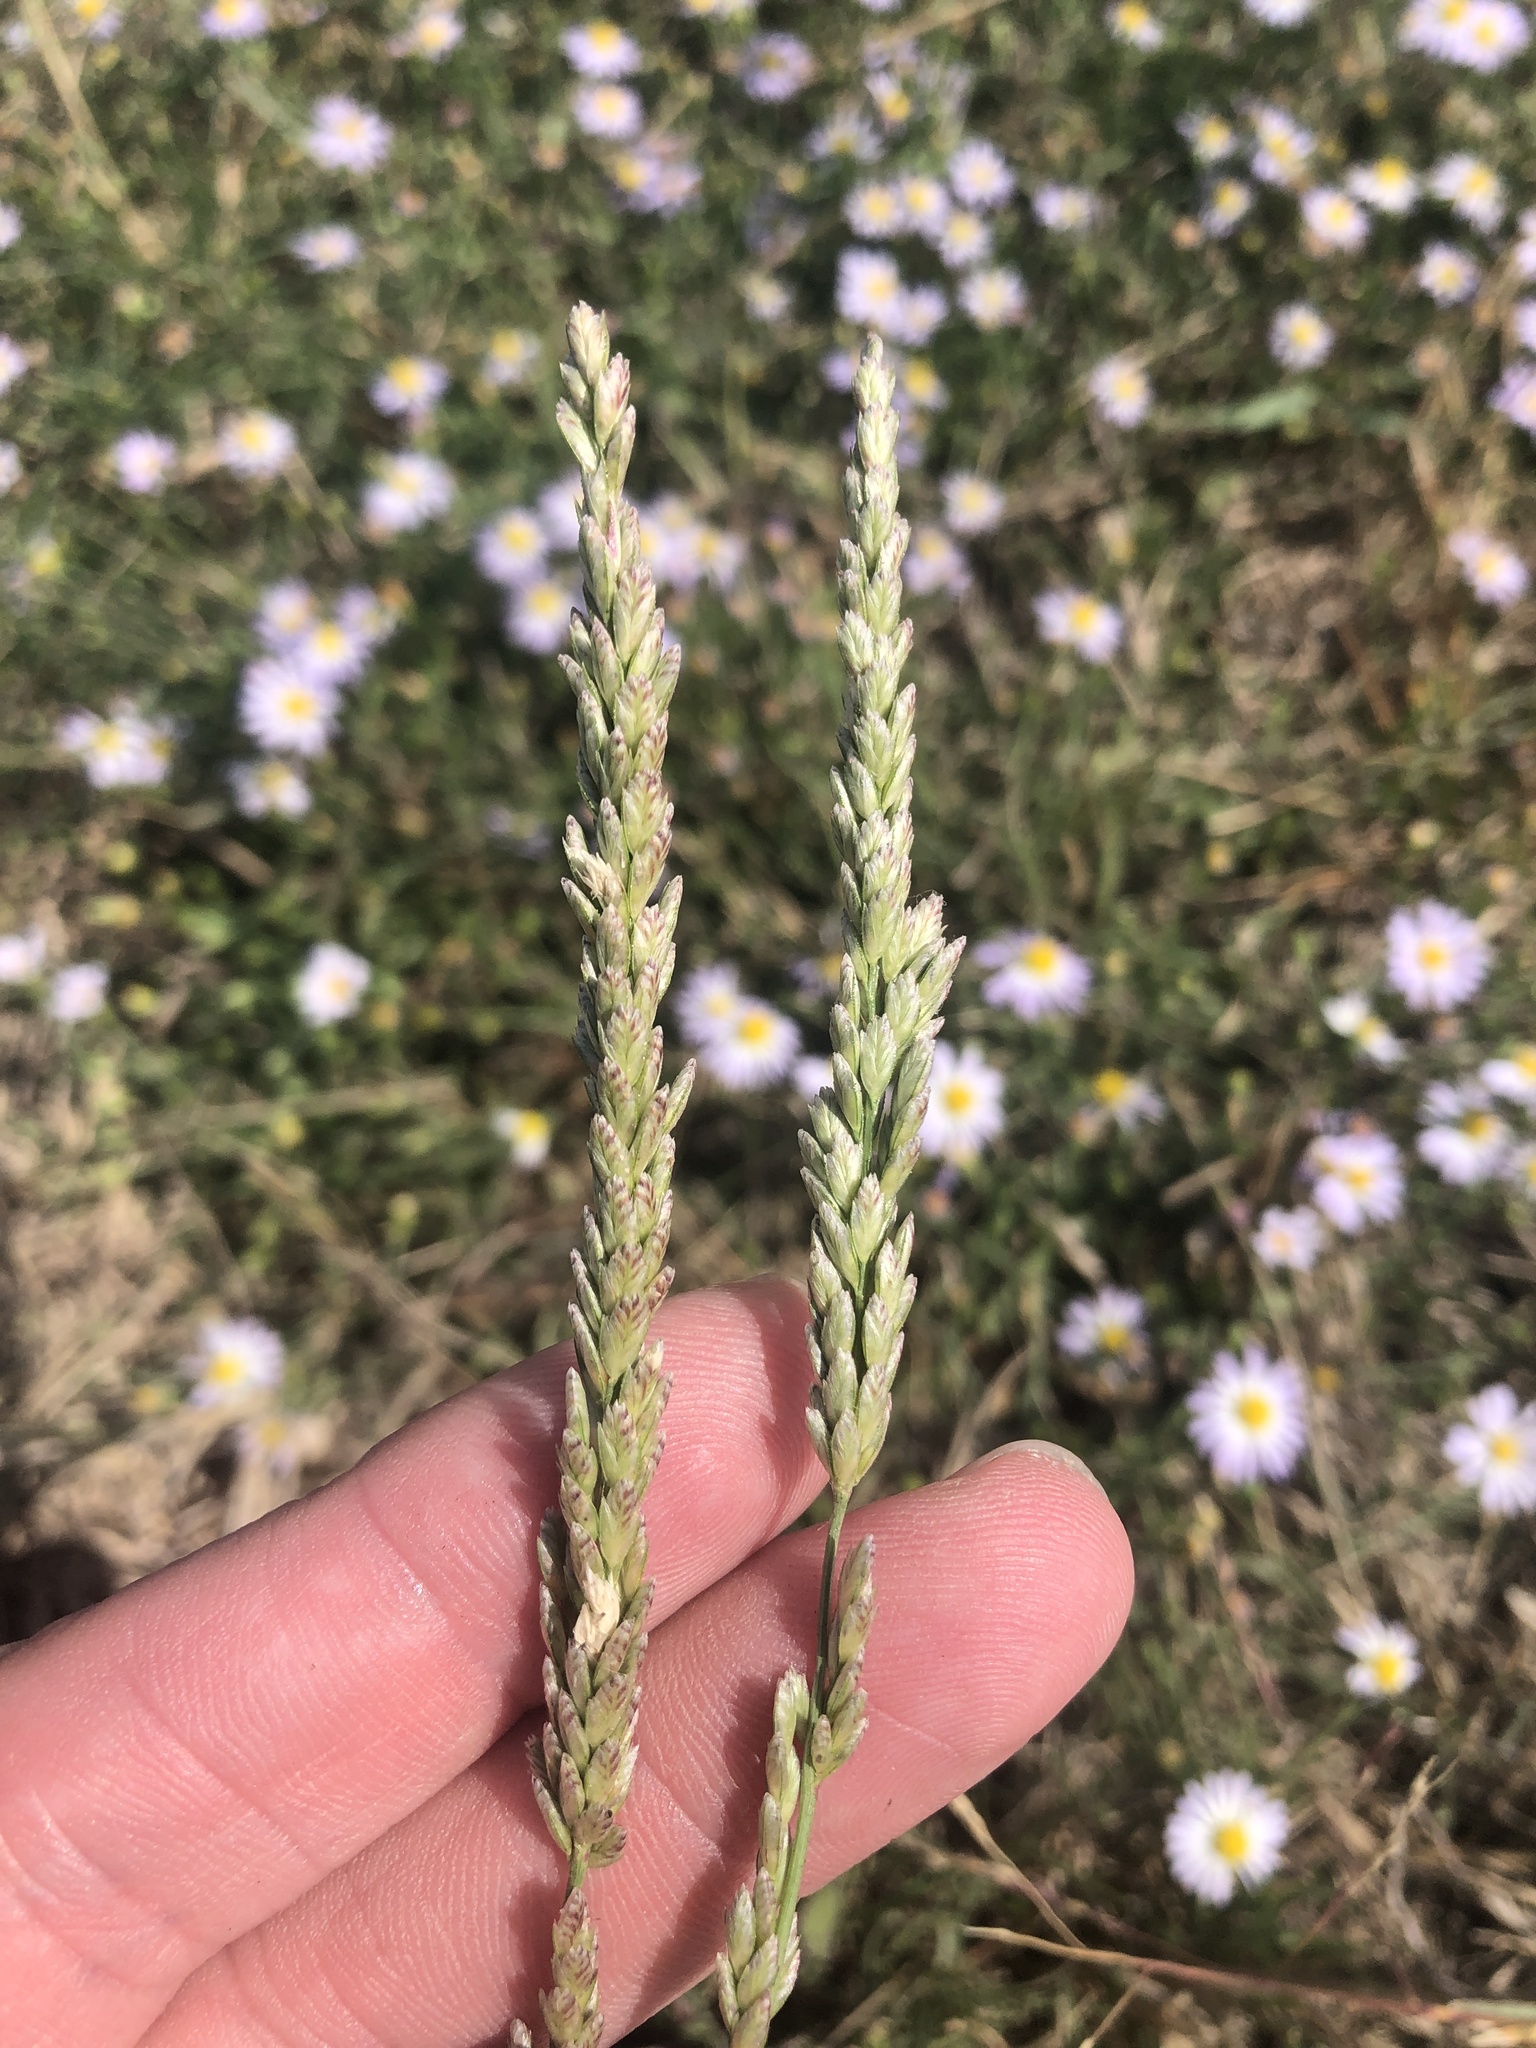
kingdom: Plantae
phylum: Tracheophyta
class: Liliopsida
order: Poales
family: Poaceae
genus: Tridens
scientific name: Tridens albescens
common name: White tridens
